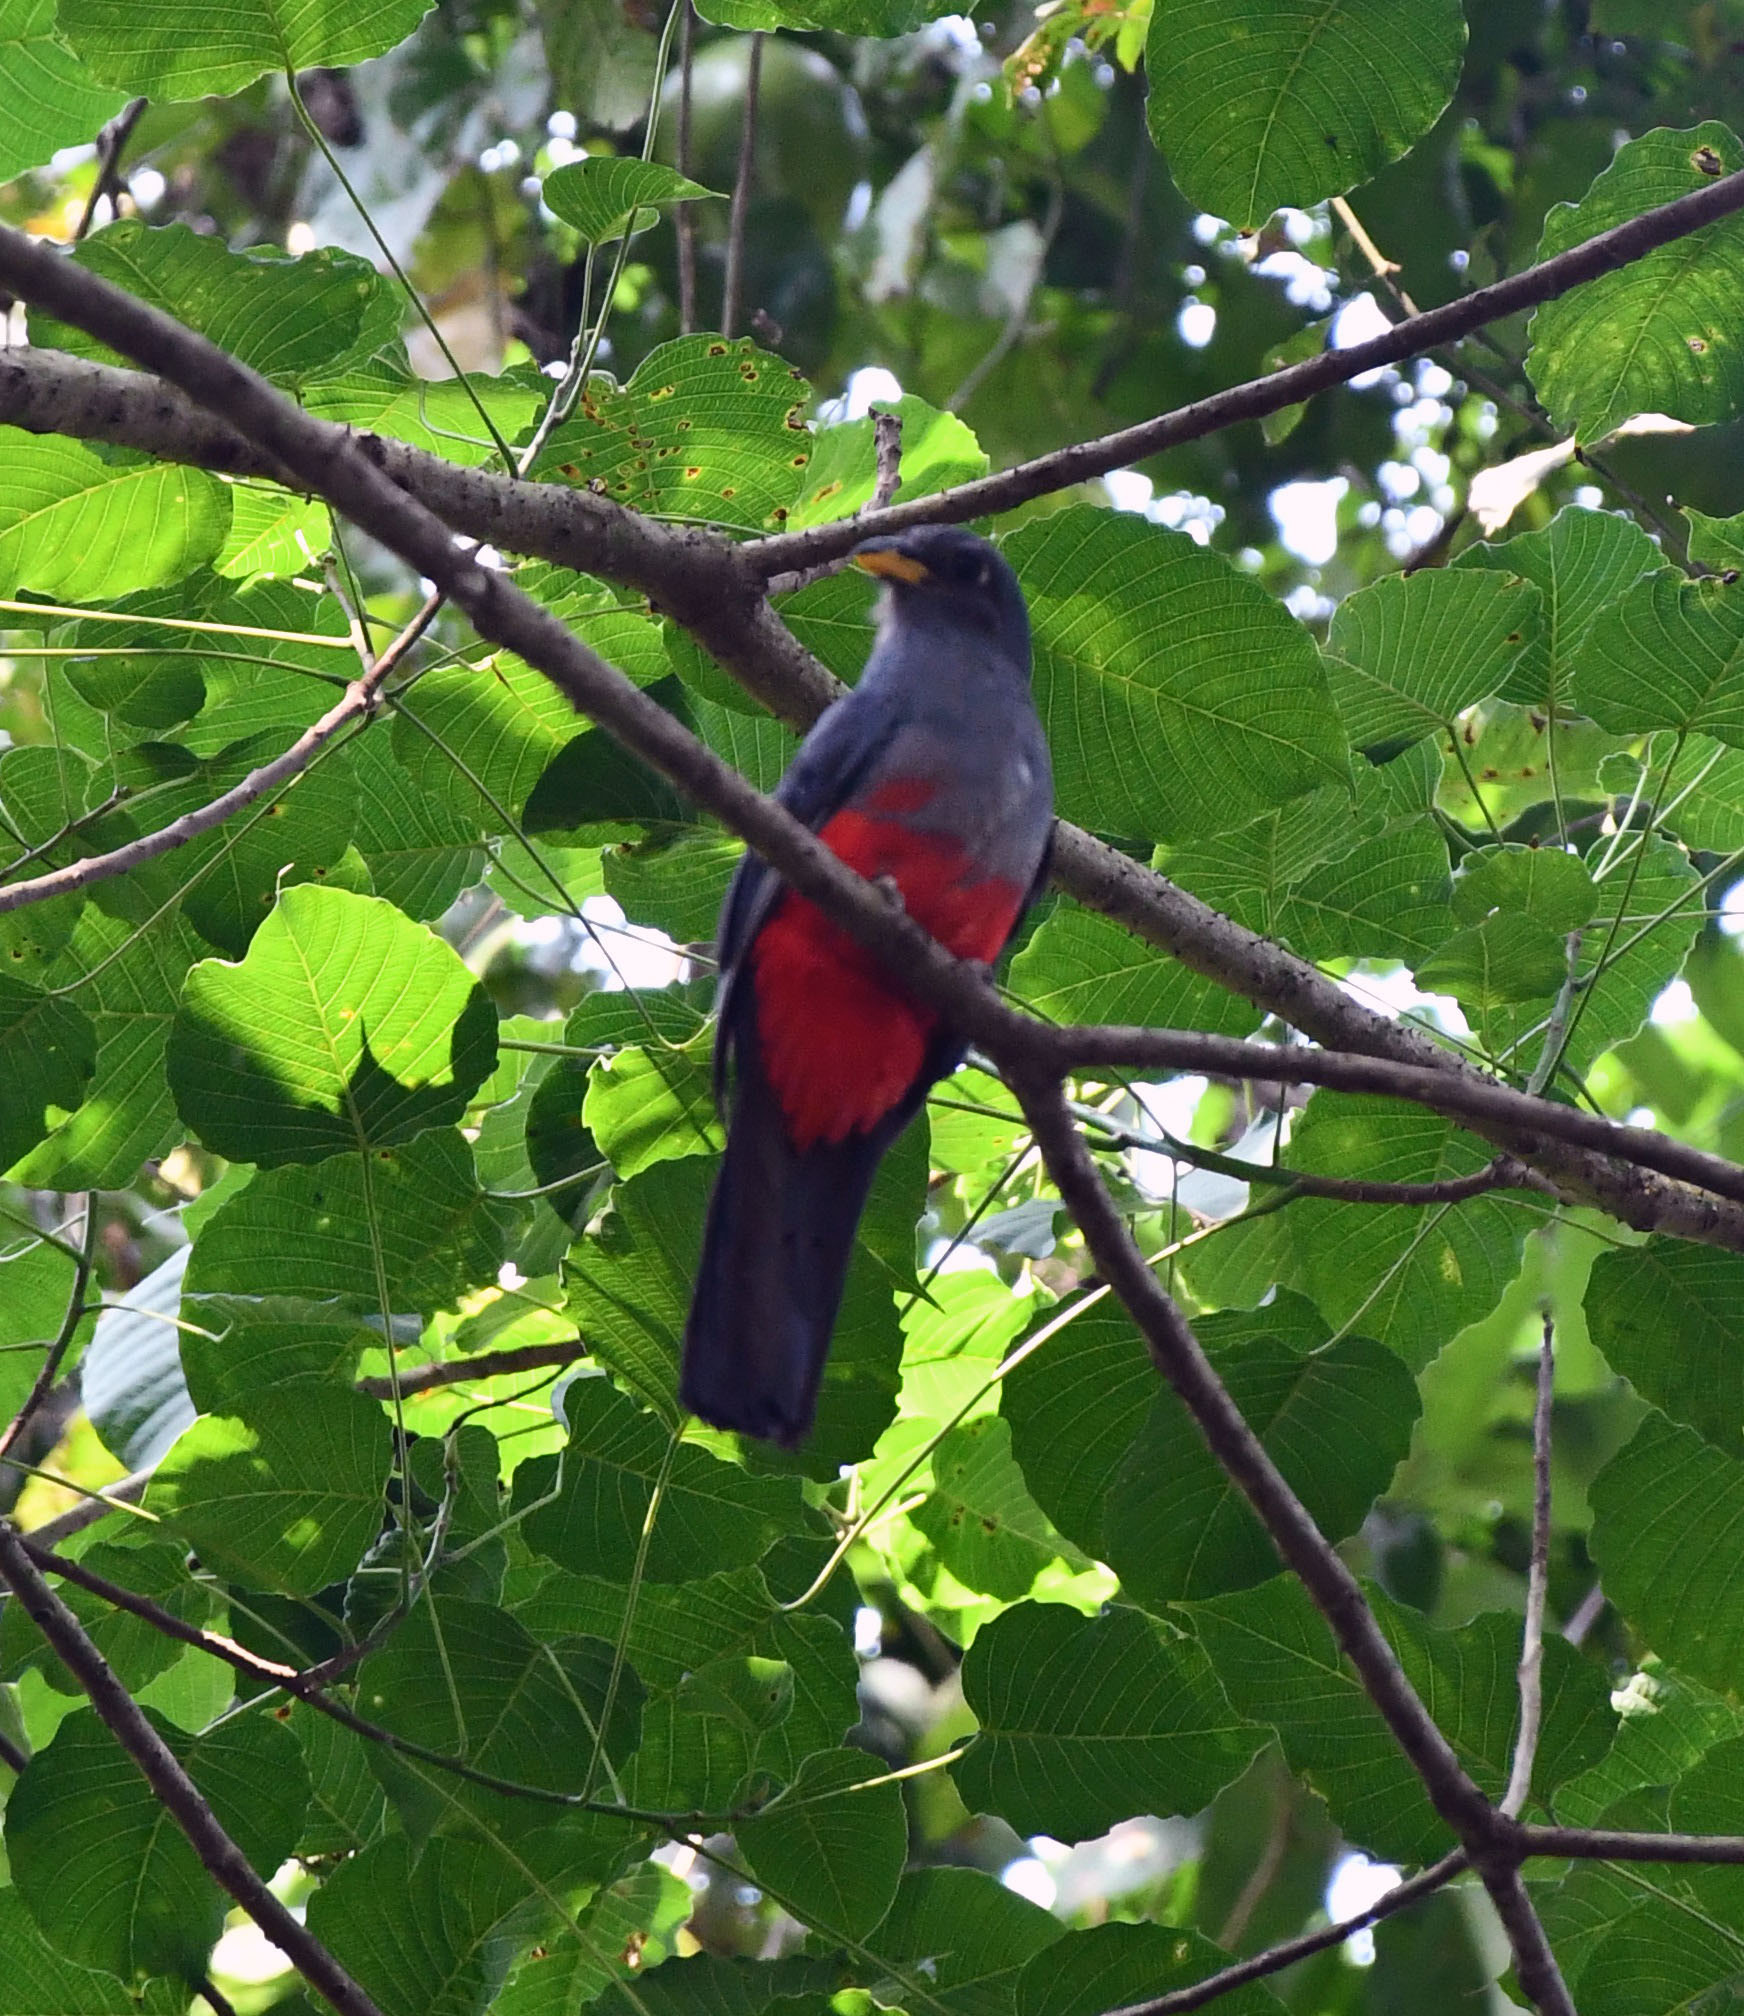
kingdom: Animalia
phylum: Chordata
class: Aves
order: Trogoniformes
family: Trogonidae
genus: Trogon
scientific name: Trogon melanurus
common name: Black-tailed trogon
